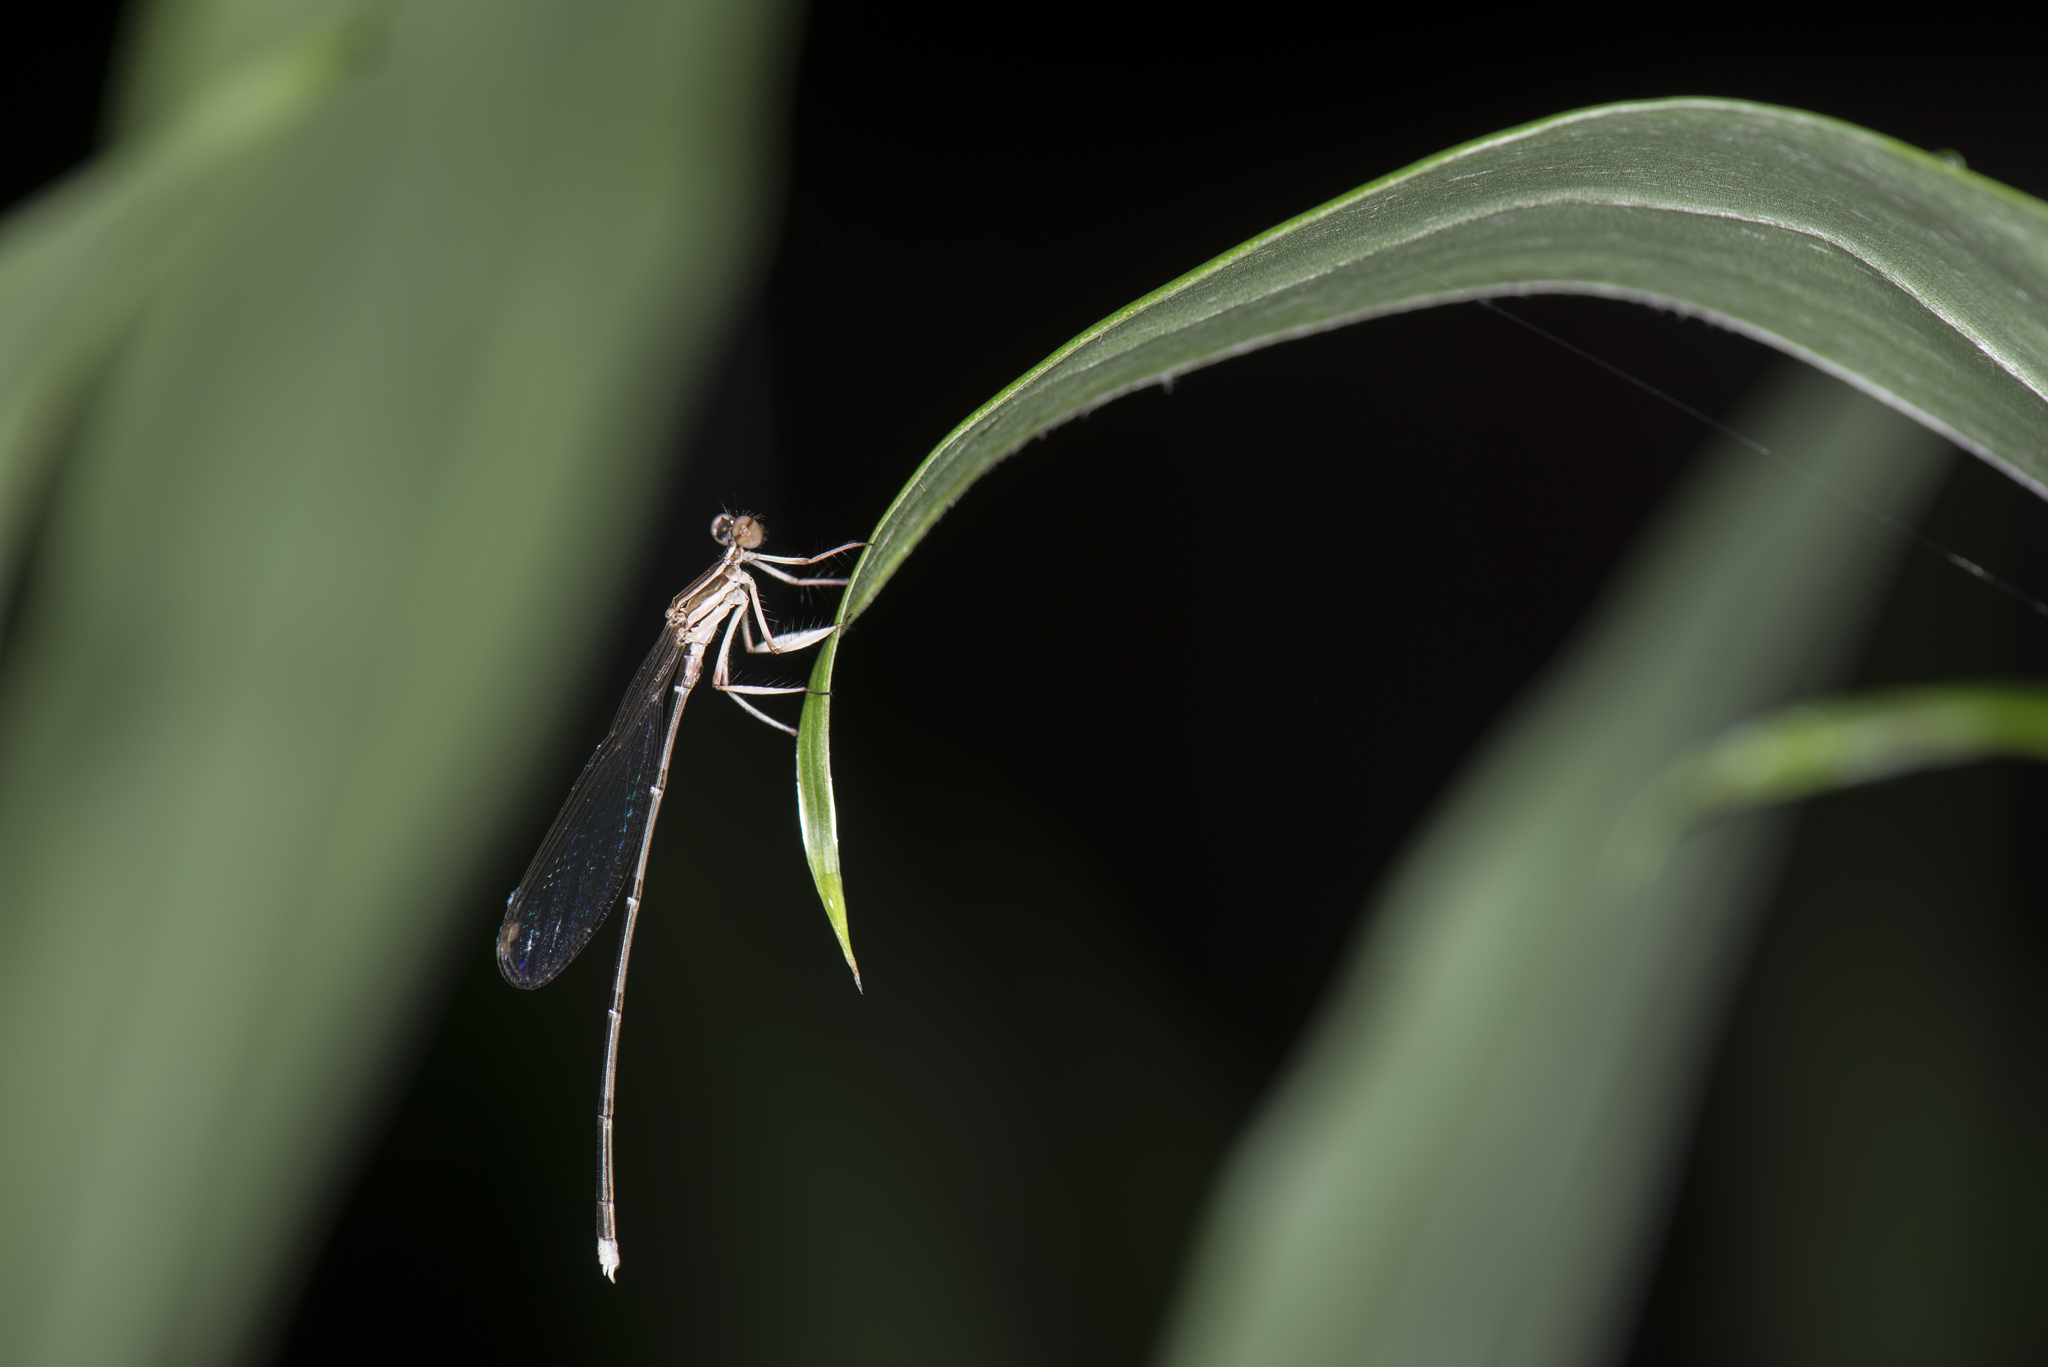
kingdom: Animalia
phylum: Arthropoda
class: Insecta
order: Odonata
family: Platycnemididae
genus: Pseudocopera
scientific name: Pseudocopera ciliata
